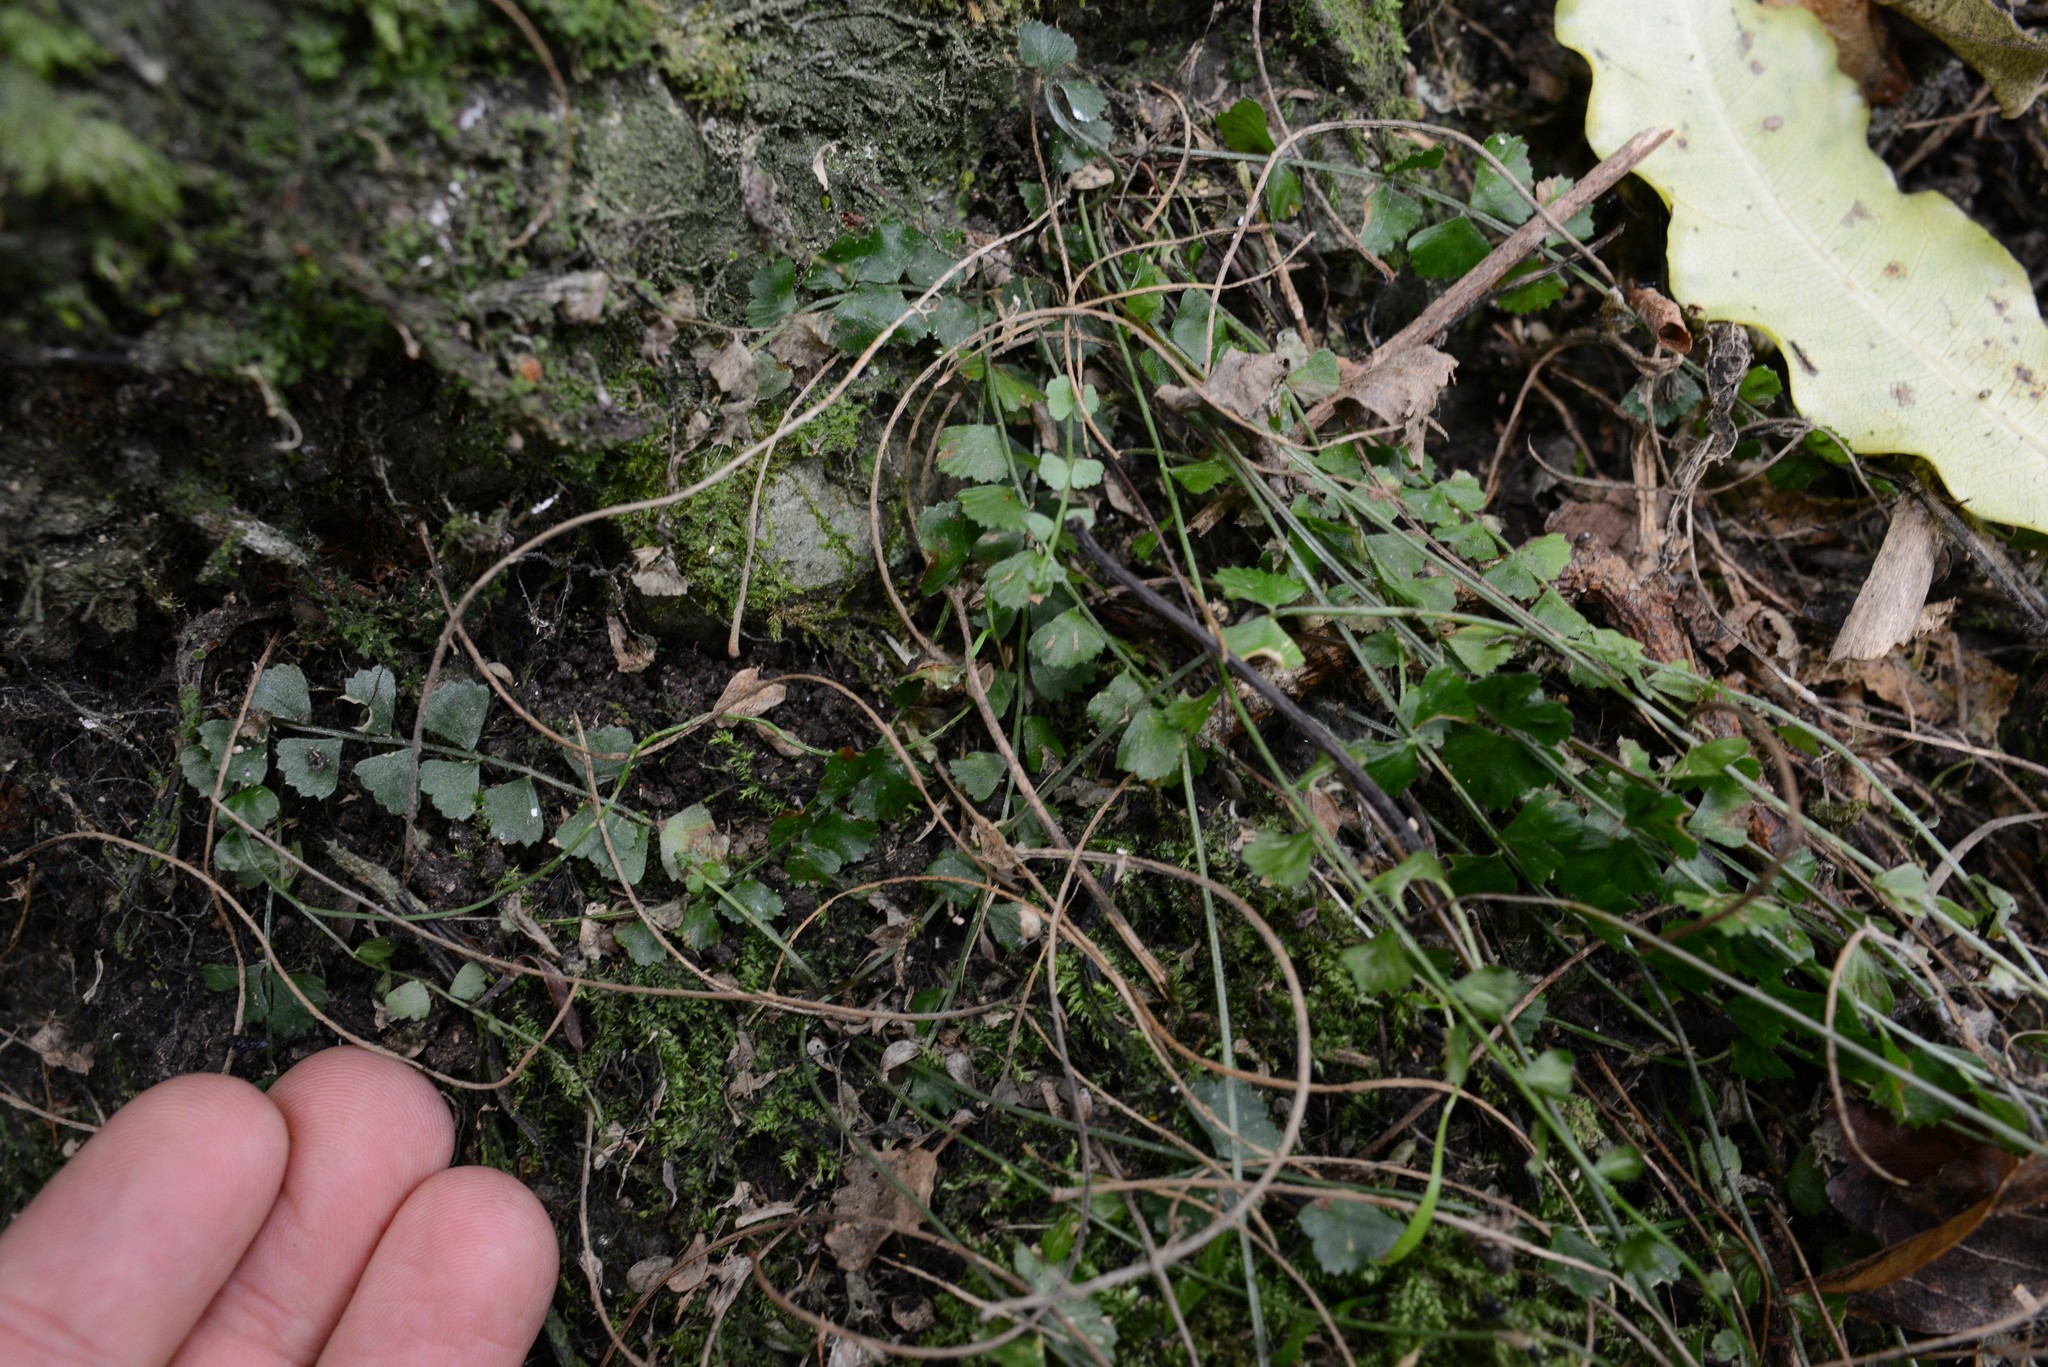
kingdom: Plantae
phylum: Tracheophyta
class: Polypodiopsida
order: Polypodiales
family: Aspleniaceae
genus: Asplenium
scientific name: Asplenium flabellifolium
